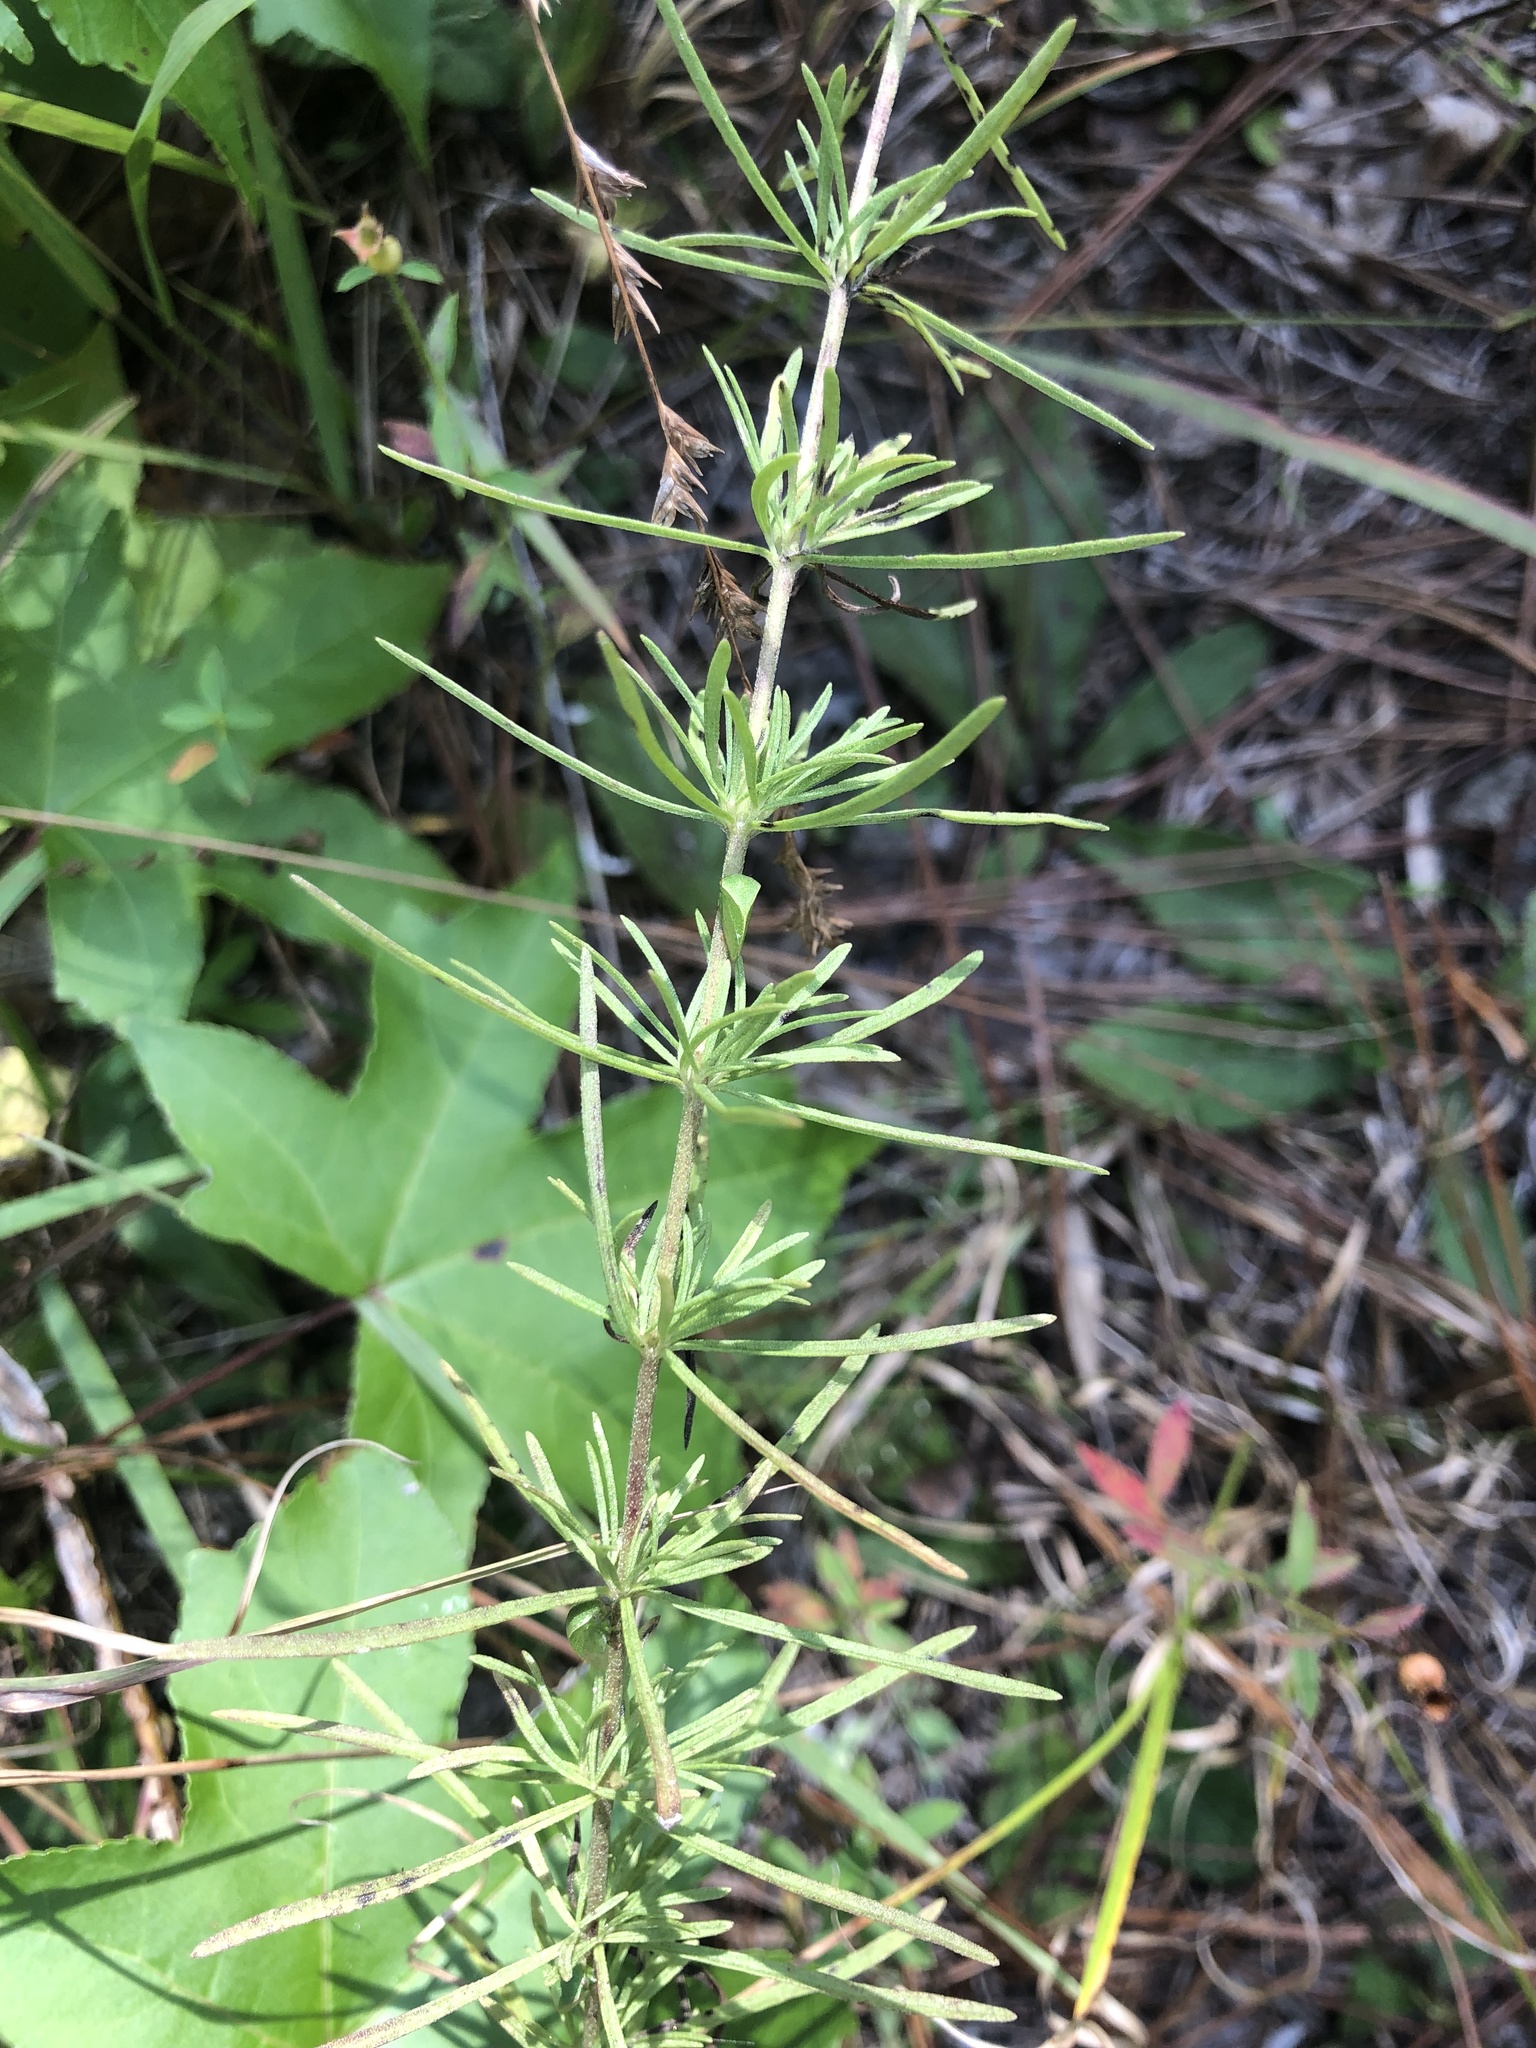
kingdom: Plantae
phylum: Tracheophyta
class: Magnoliopsida
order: Asterales
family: Asteraceae
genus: Eupatorium
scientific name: Eupatorium hyssopifolium
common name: Hyssop-leaf thoroughwort
